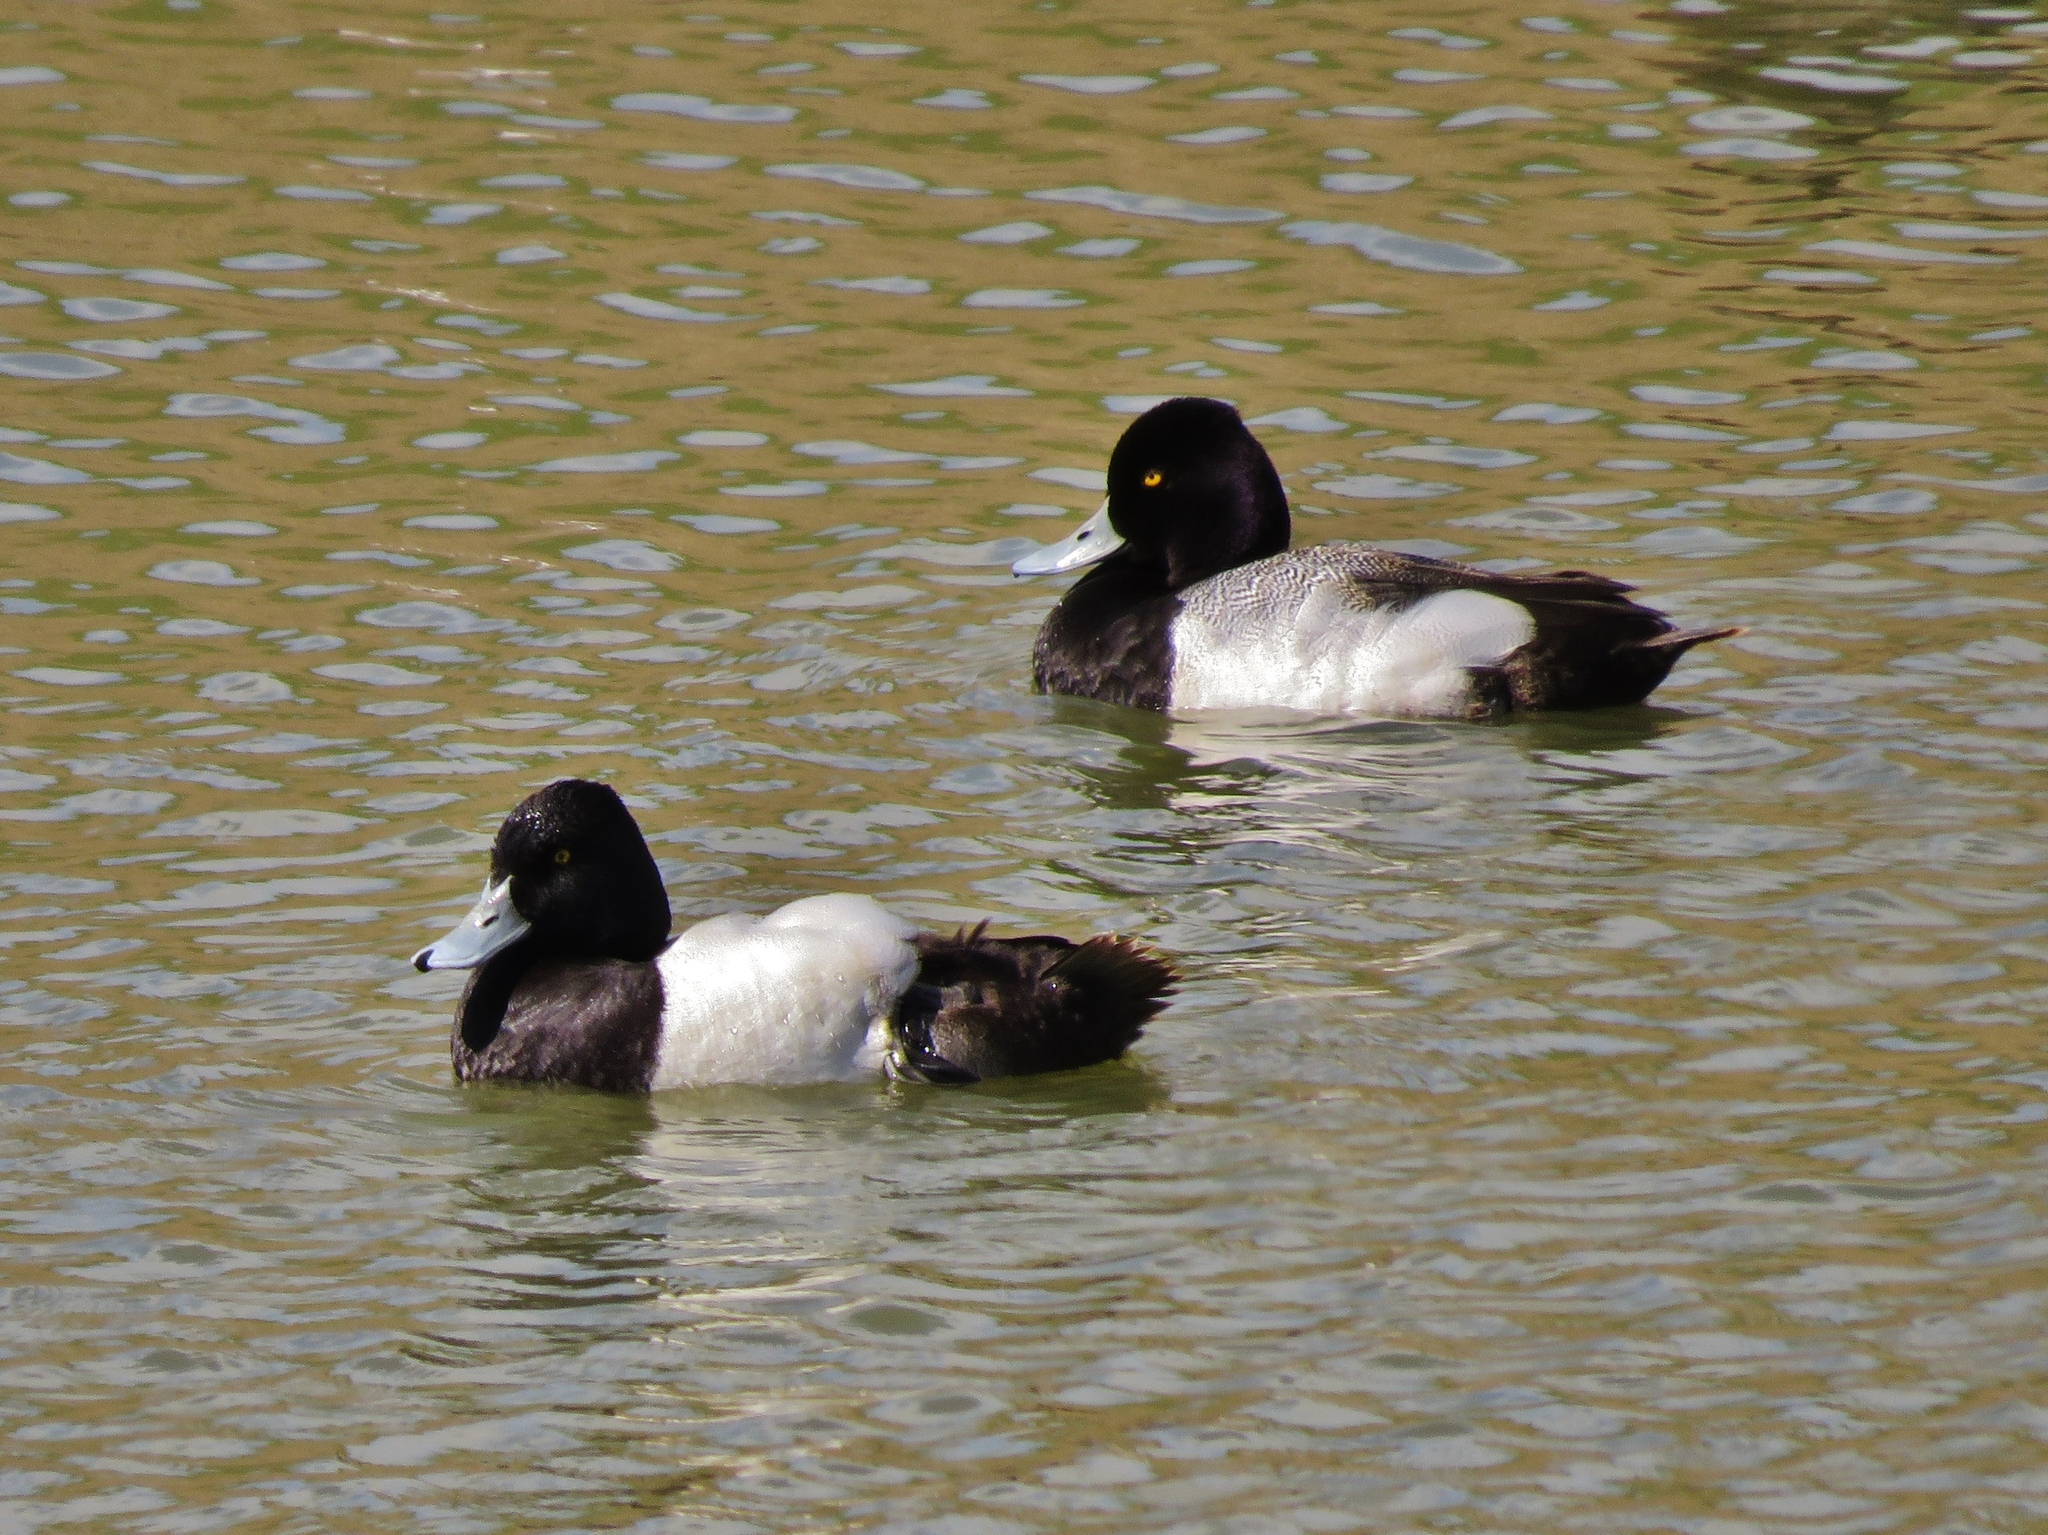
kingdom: Animalia
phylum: Chordata
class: Aves
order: Anseriformes
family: Anatidae
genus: Aythya
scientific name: Aythya affinis
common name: Lesser scaup
